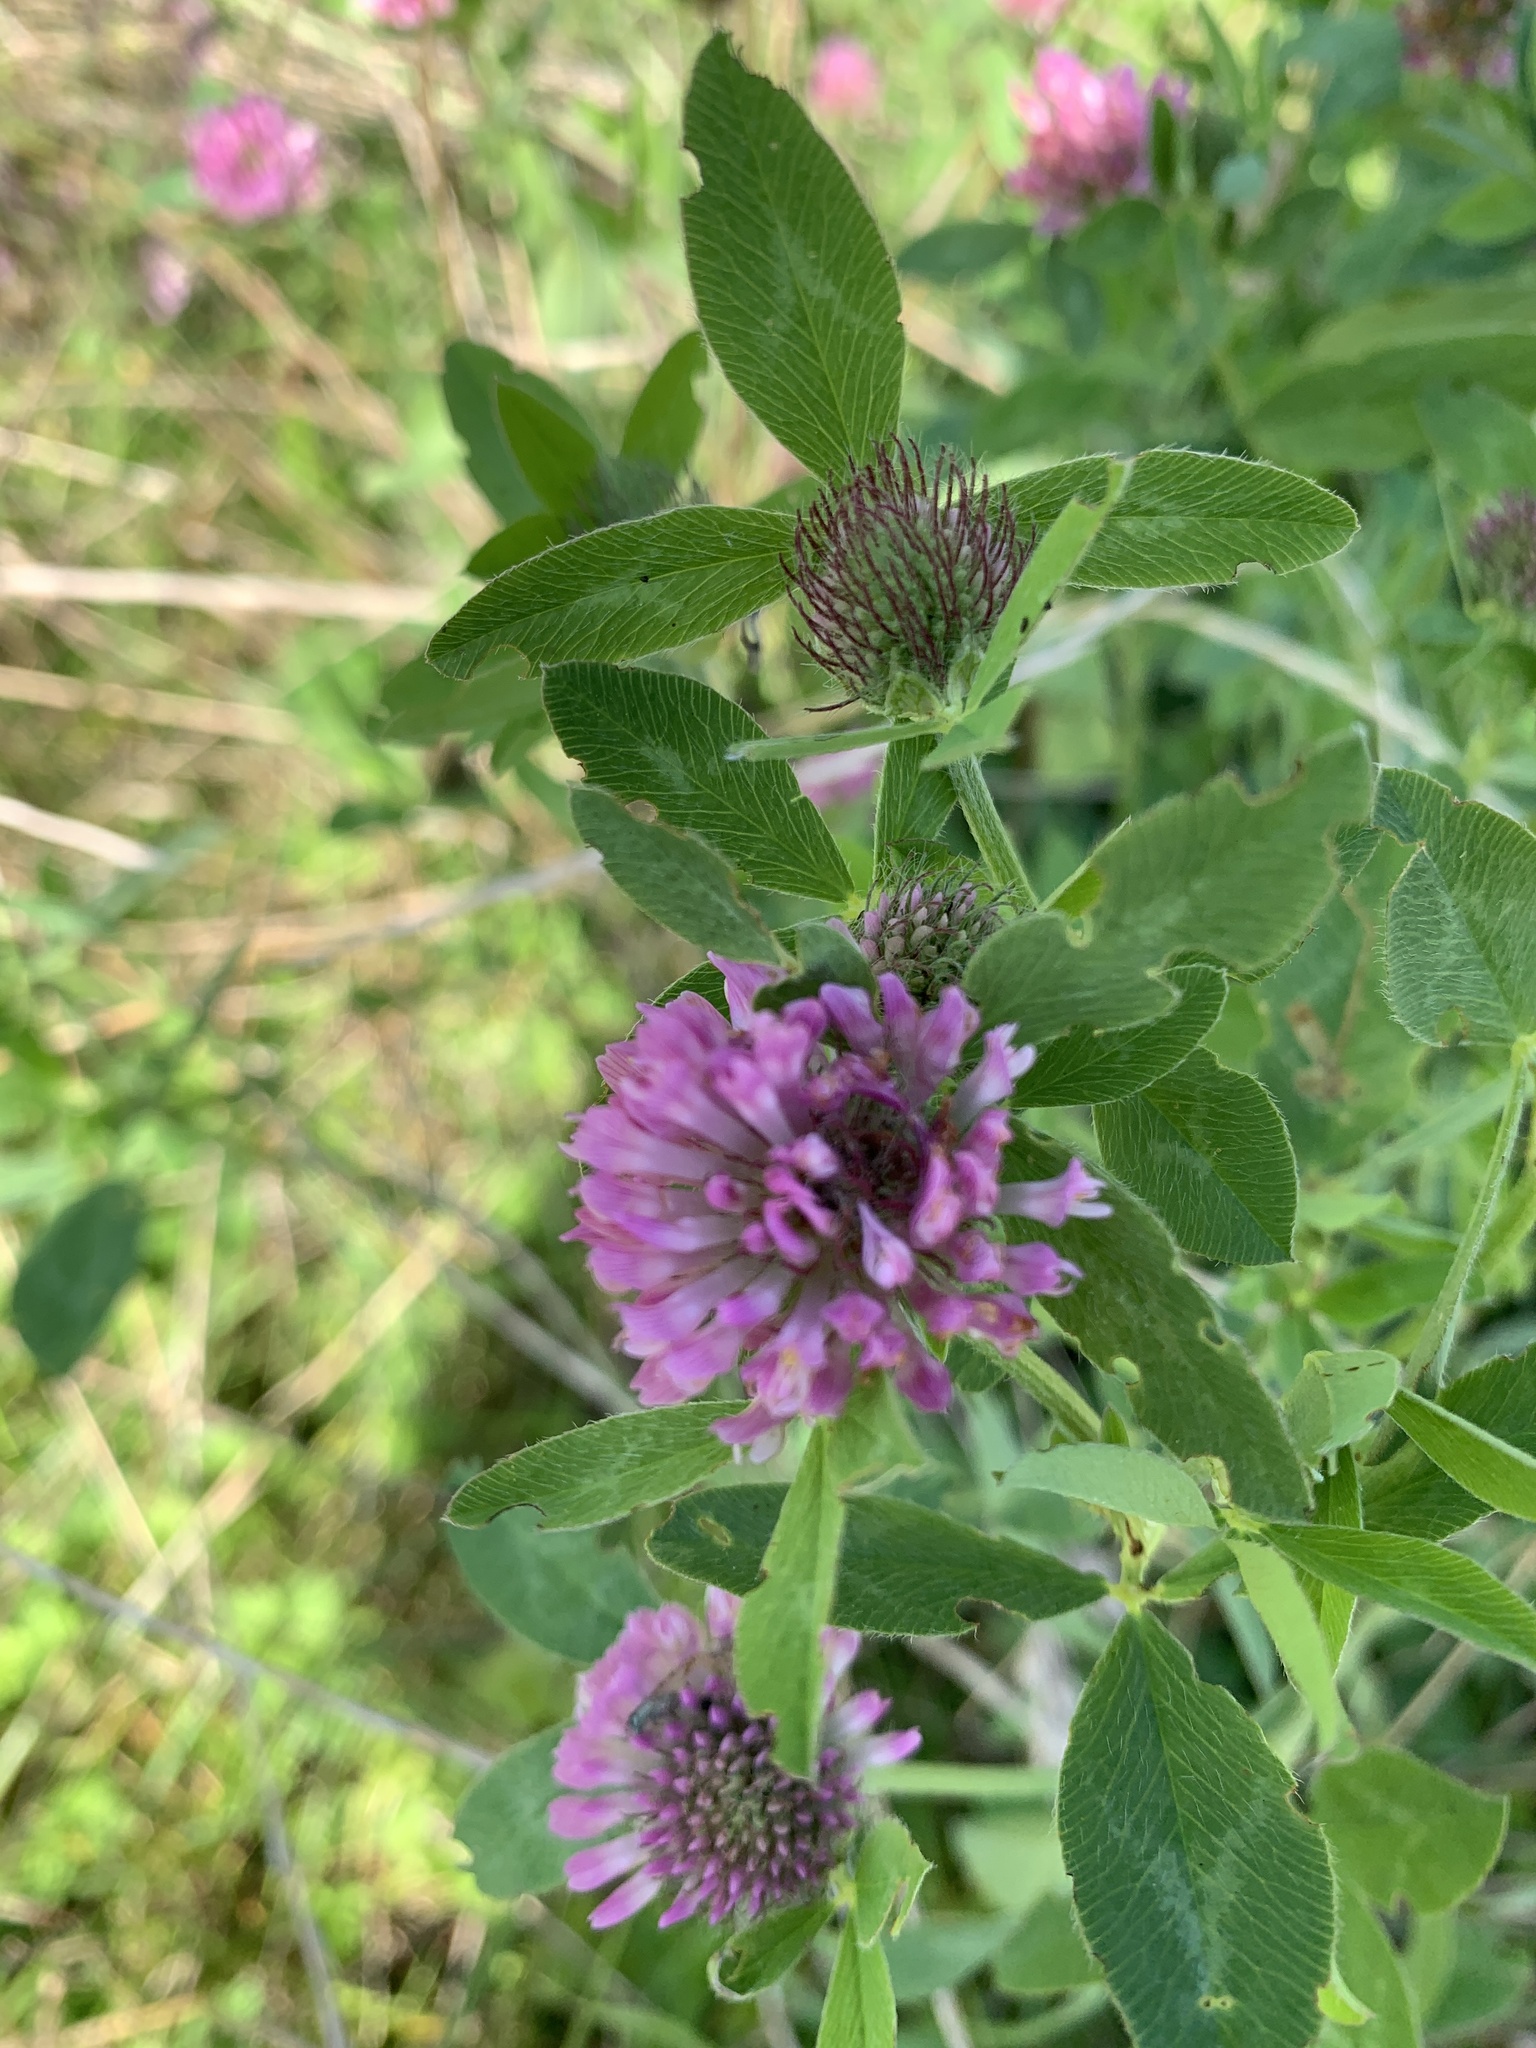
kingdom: Plantae
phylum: Tracheophyta
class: Magnoliopsida
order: Fabales
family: Fabaceae
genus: Trifolium
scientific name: Trifolium pratense
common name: Red clover
